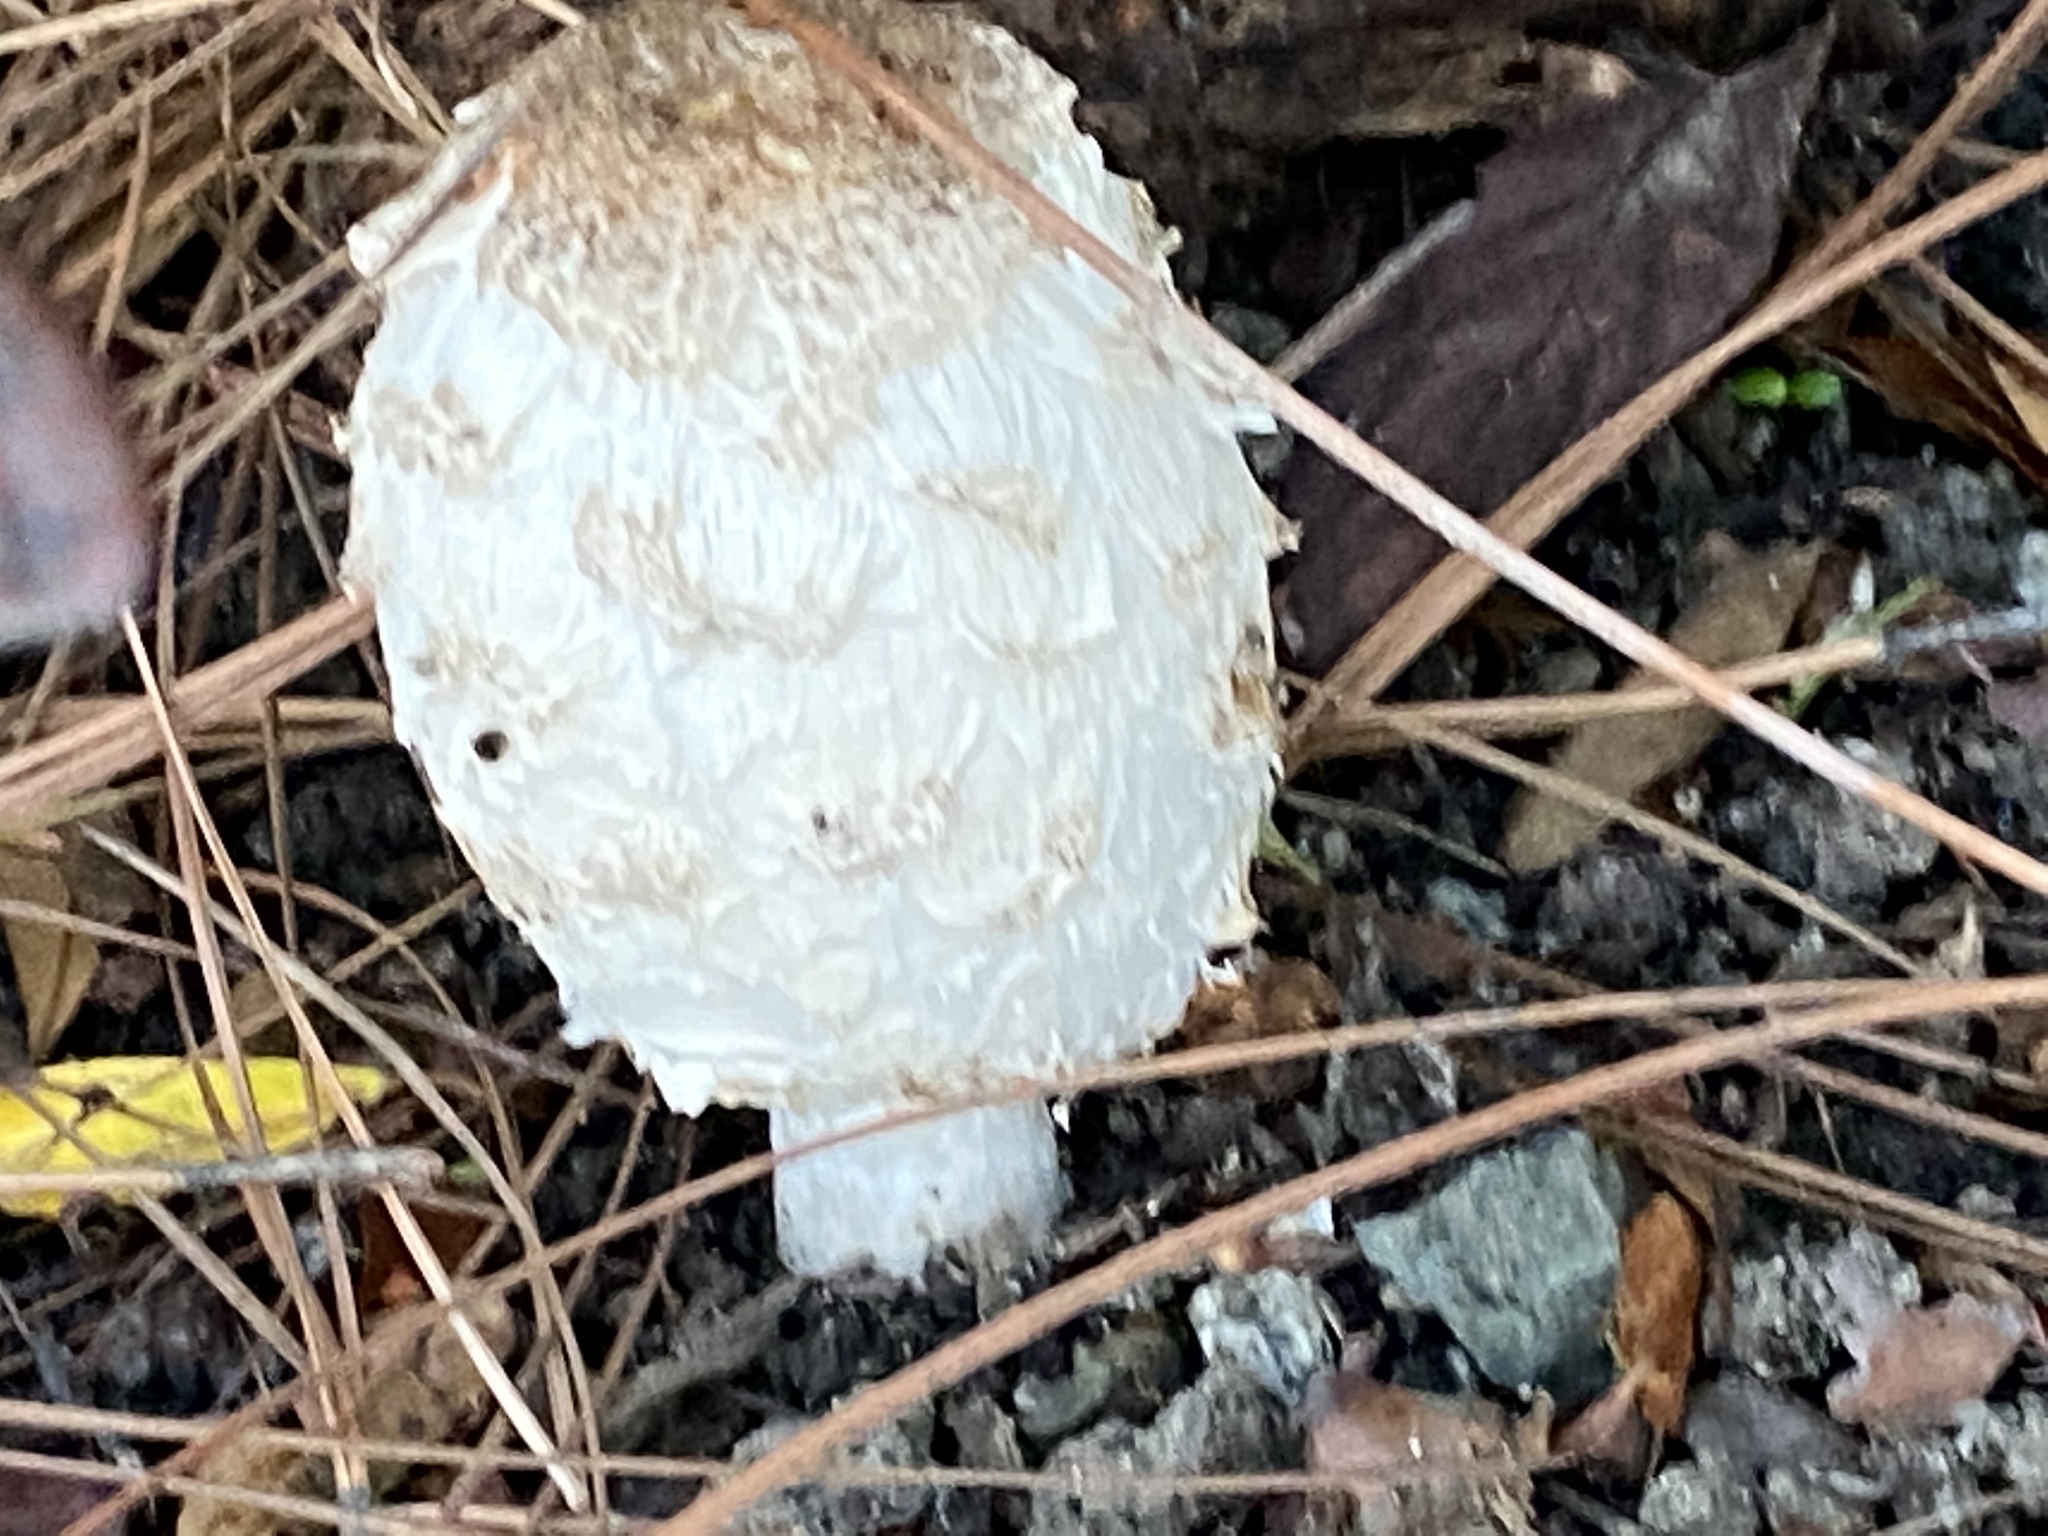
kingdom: Fungi
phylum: Basidiomycota
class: Agaricomycetes
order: Agaricales
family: Agaricaceae
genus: Coprinus
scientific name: Coprinus comatus
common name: Lawyer's wig
